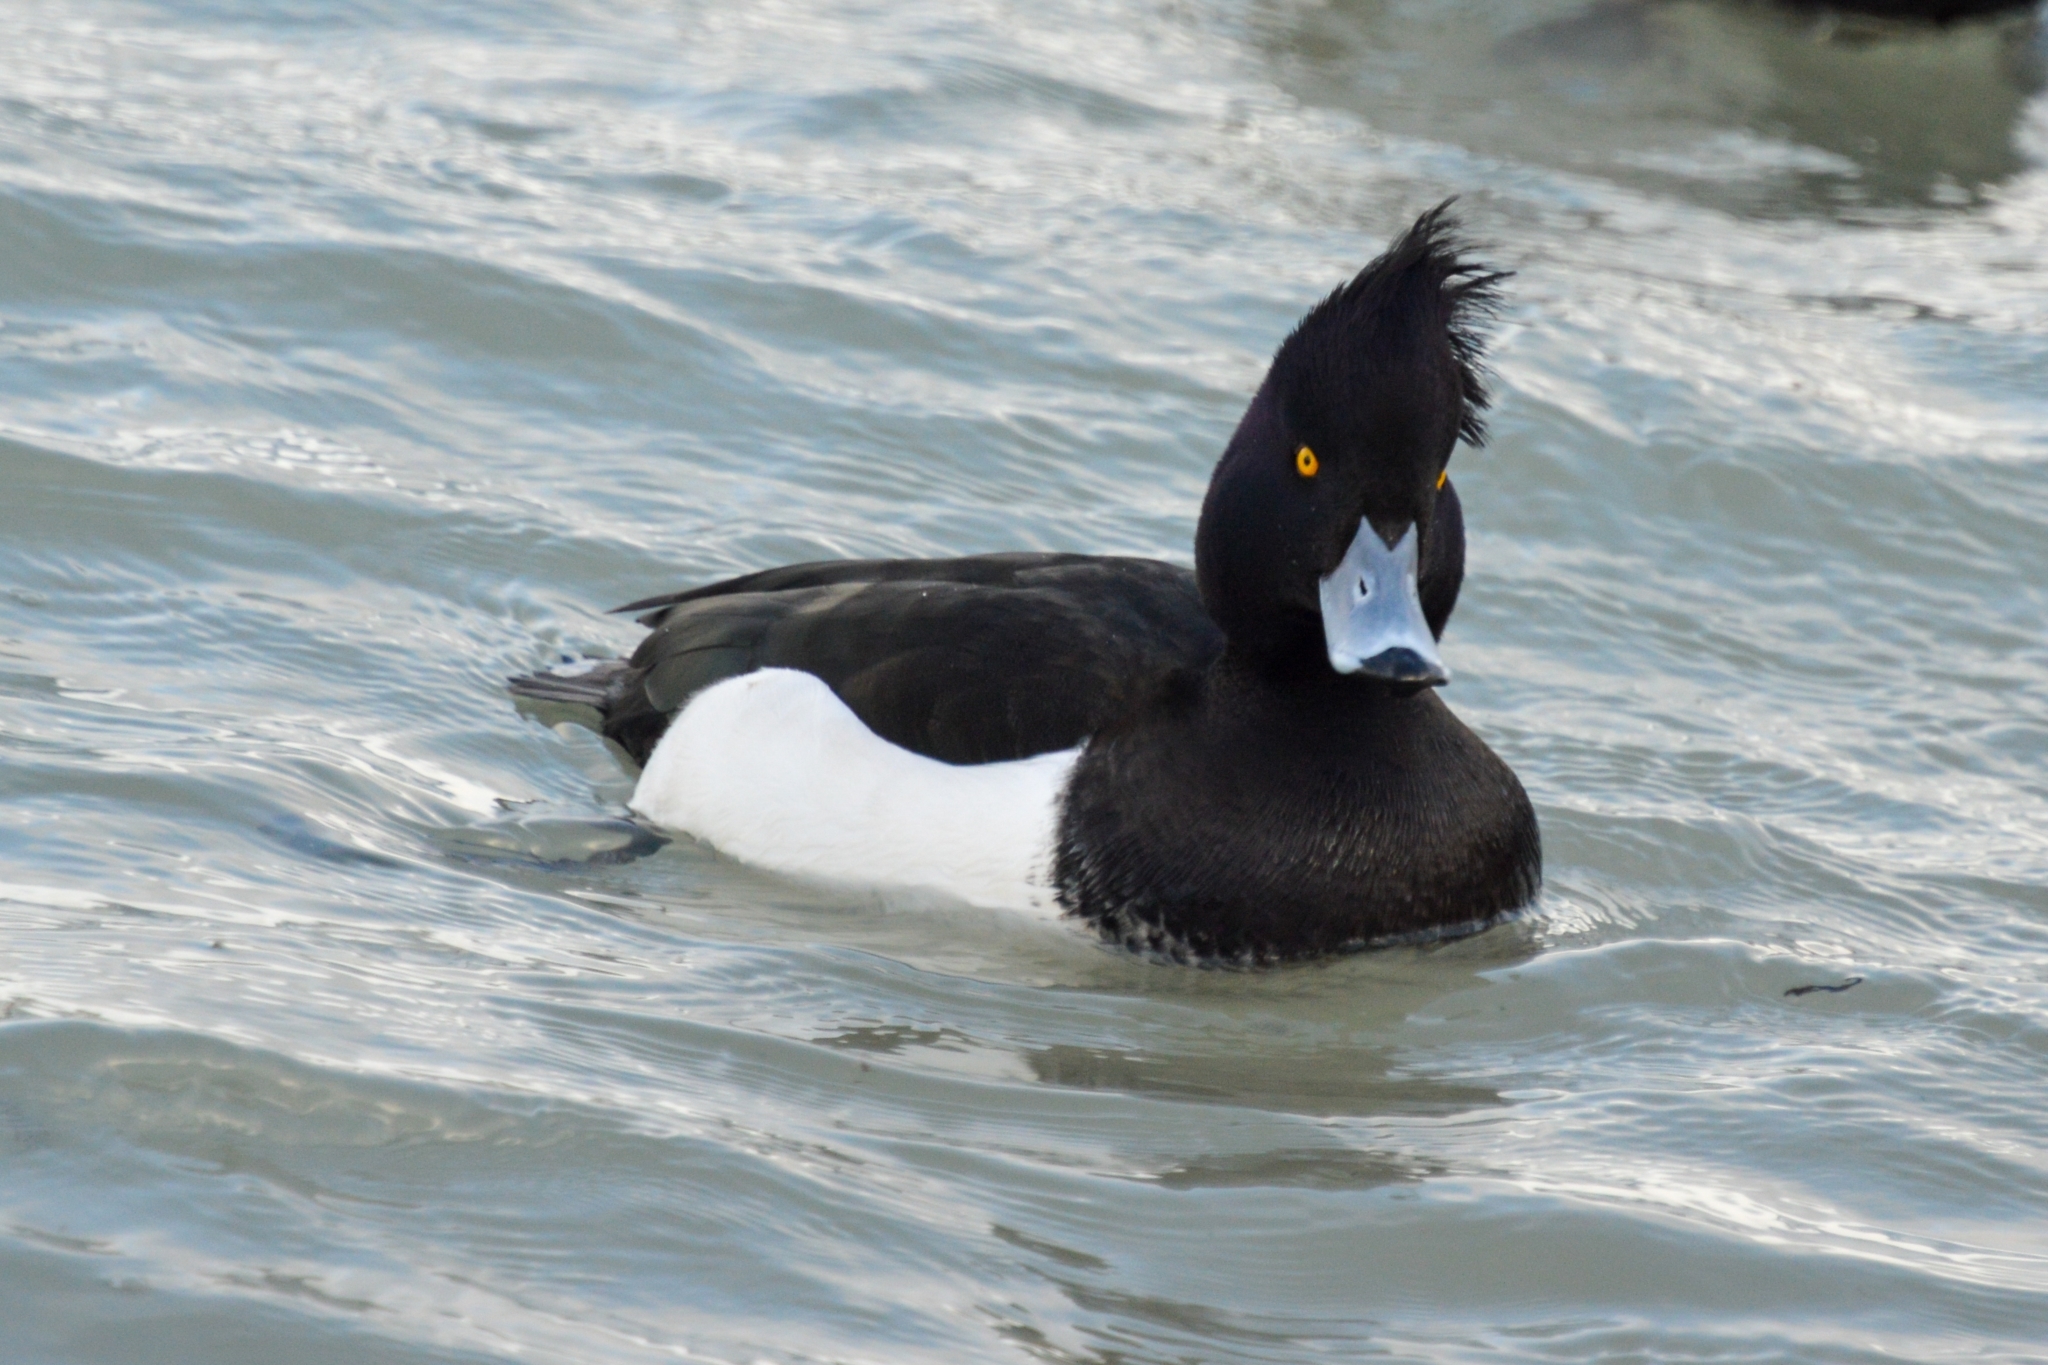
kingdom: Animalia
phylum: Chordata
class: Aves
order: Anseriformes
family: Anatidae
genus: Aythya
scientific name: Aythya fuligula
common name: Tufted duck
